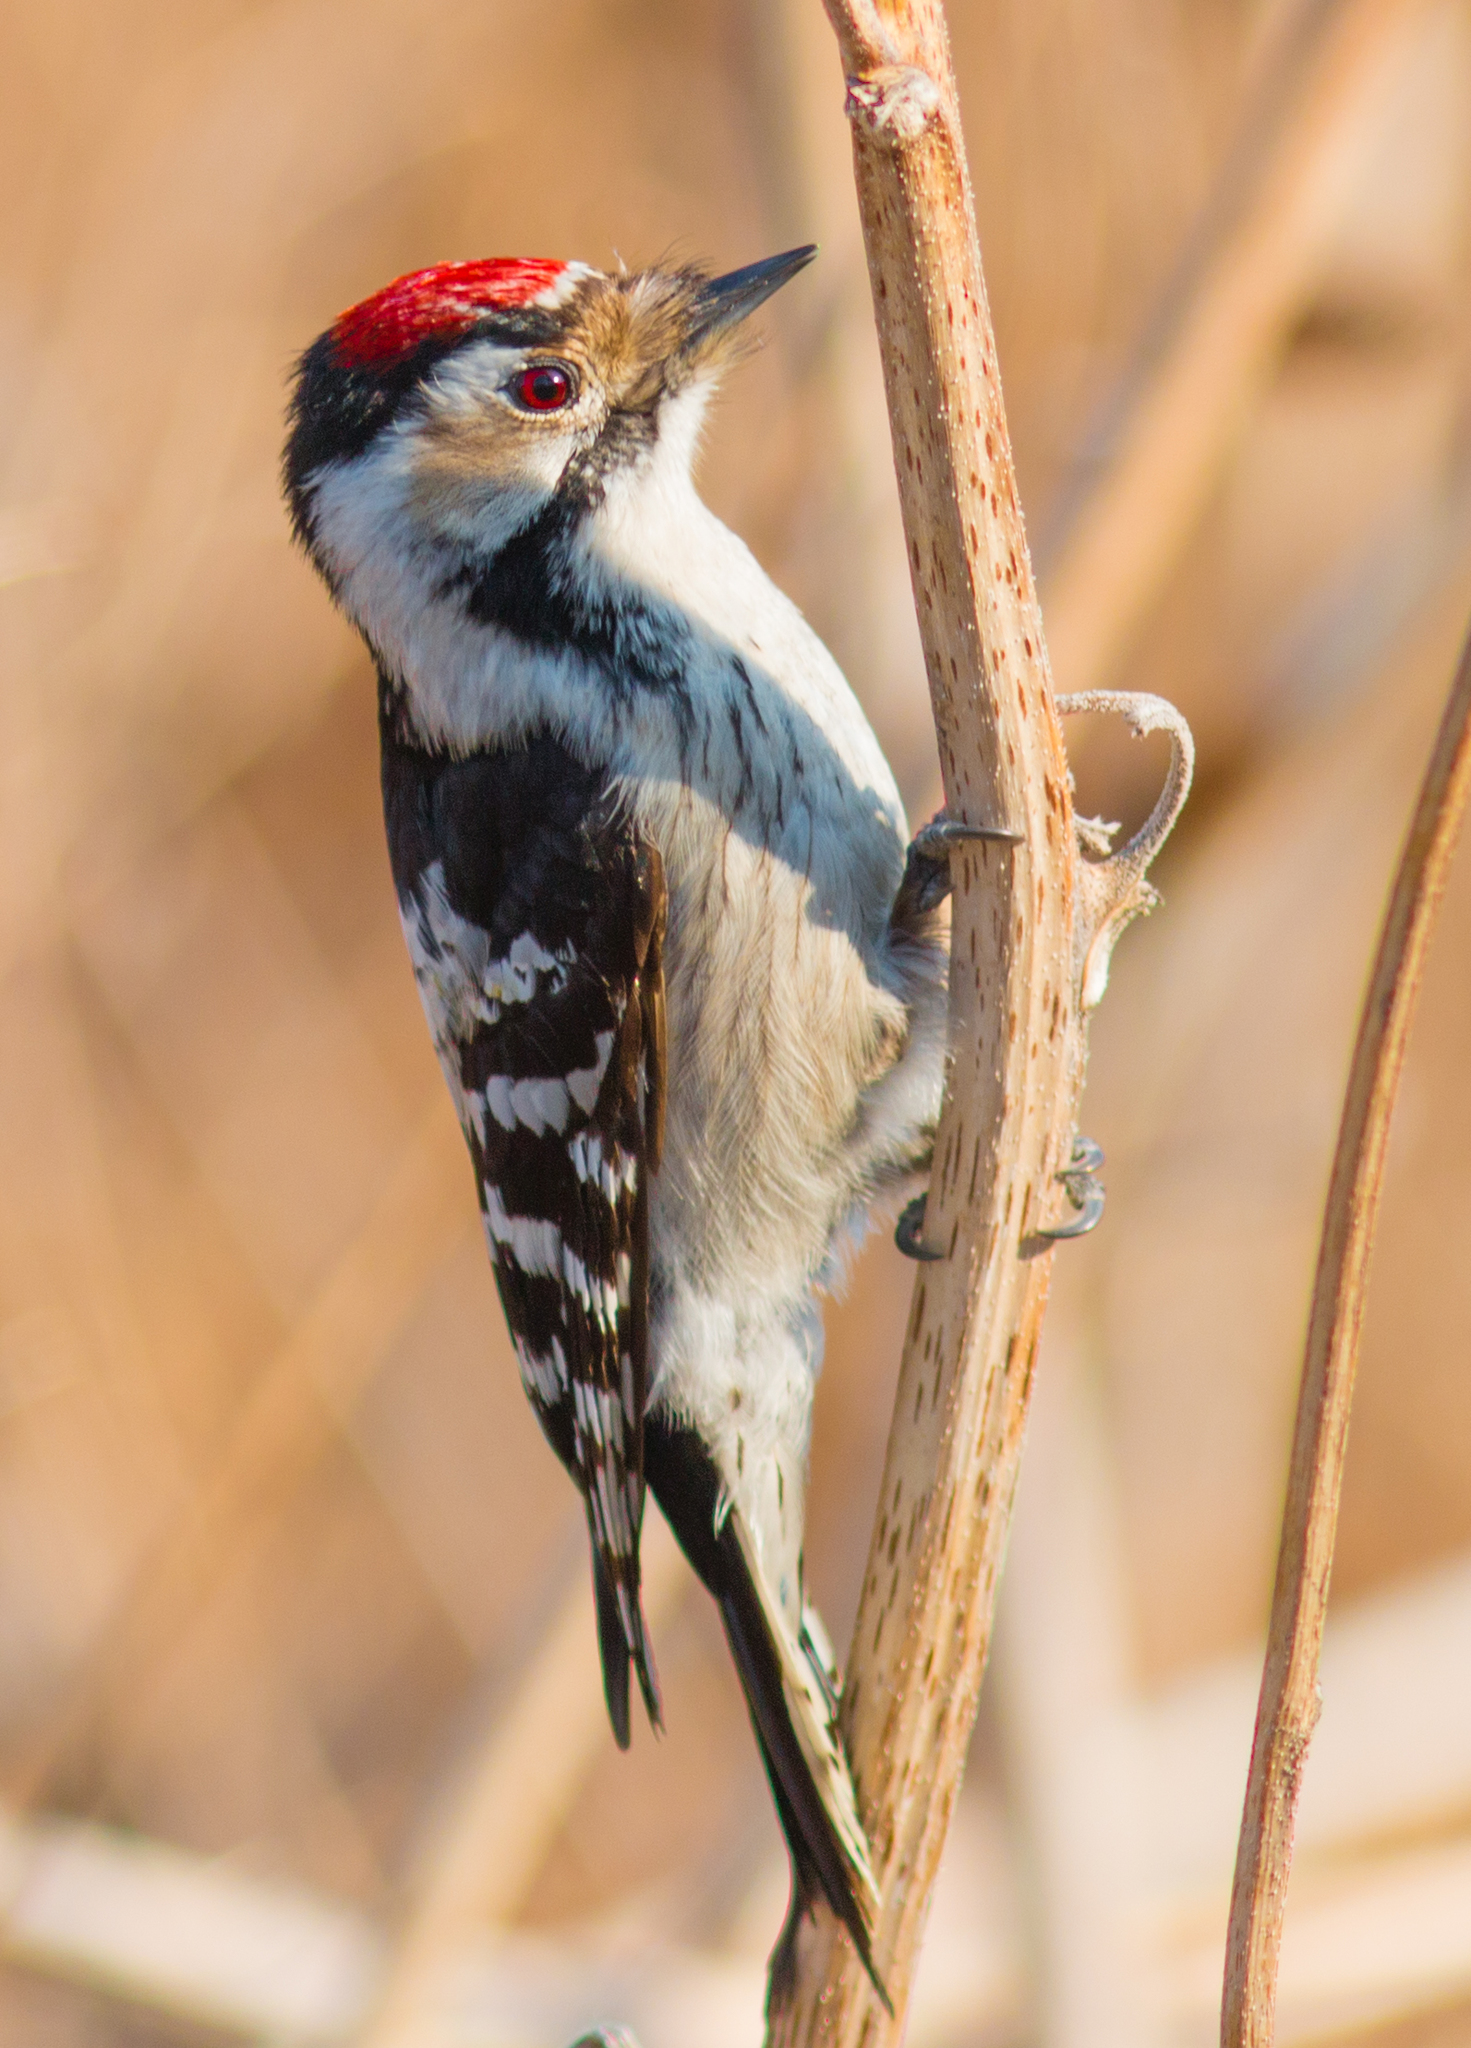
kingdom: Animalia
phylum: Chordata
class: Aves
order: Piciformes
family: Picidae
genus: Dryobates
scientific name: Dryobates minor
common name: Lesser spotted woodpecker
